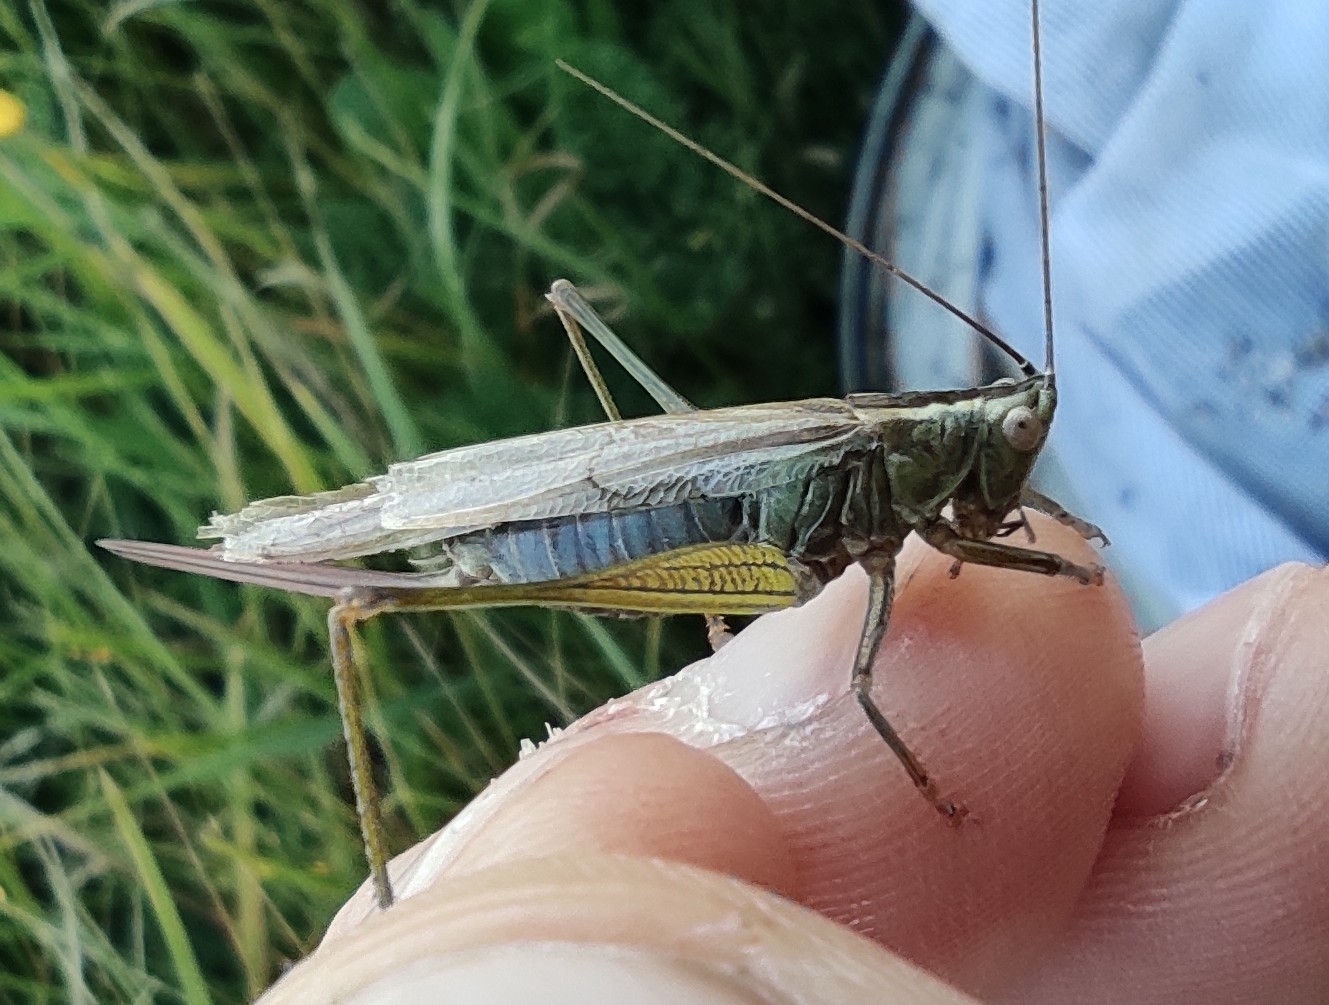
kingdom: Animalia
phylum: Arthropoda
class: Insecta
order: Orthoptera
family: Tettigoniidae
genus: Conocephalus
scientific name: Conocephalus fuscus
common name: Long-winged conehead
